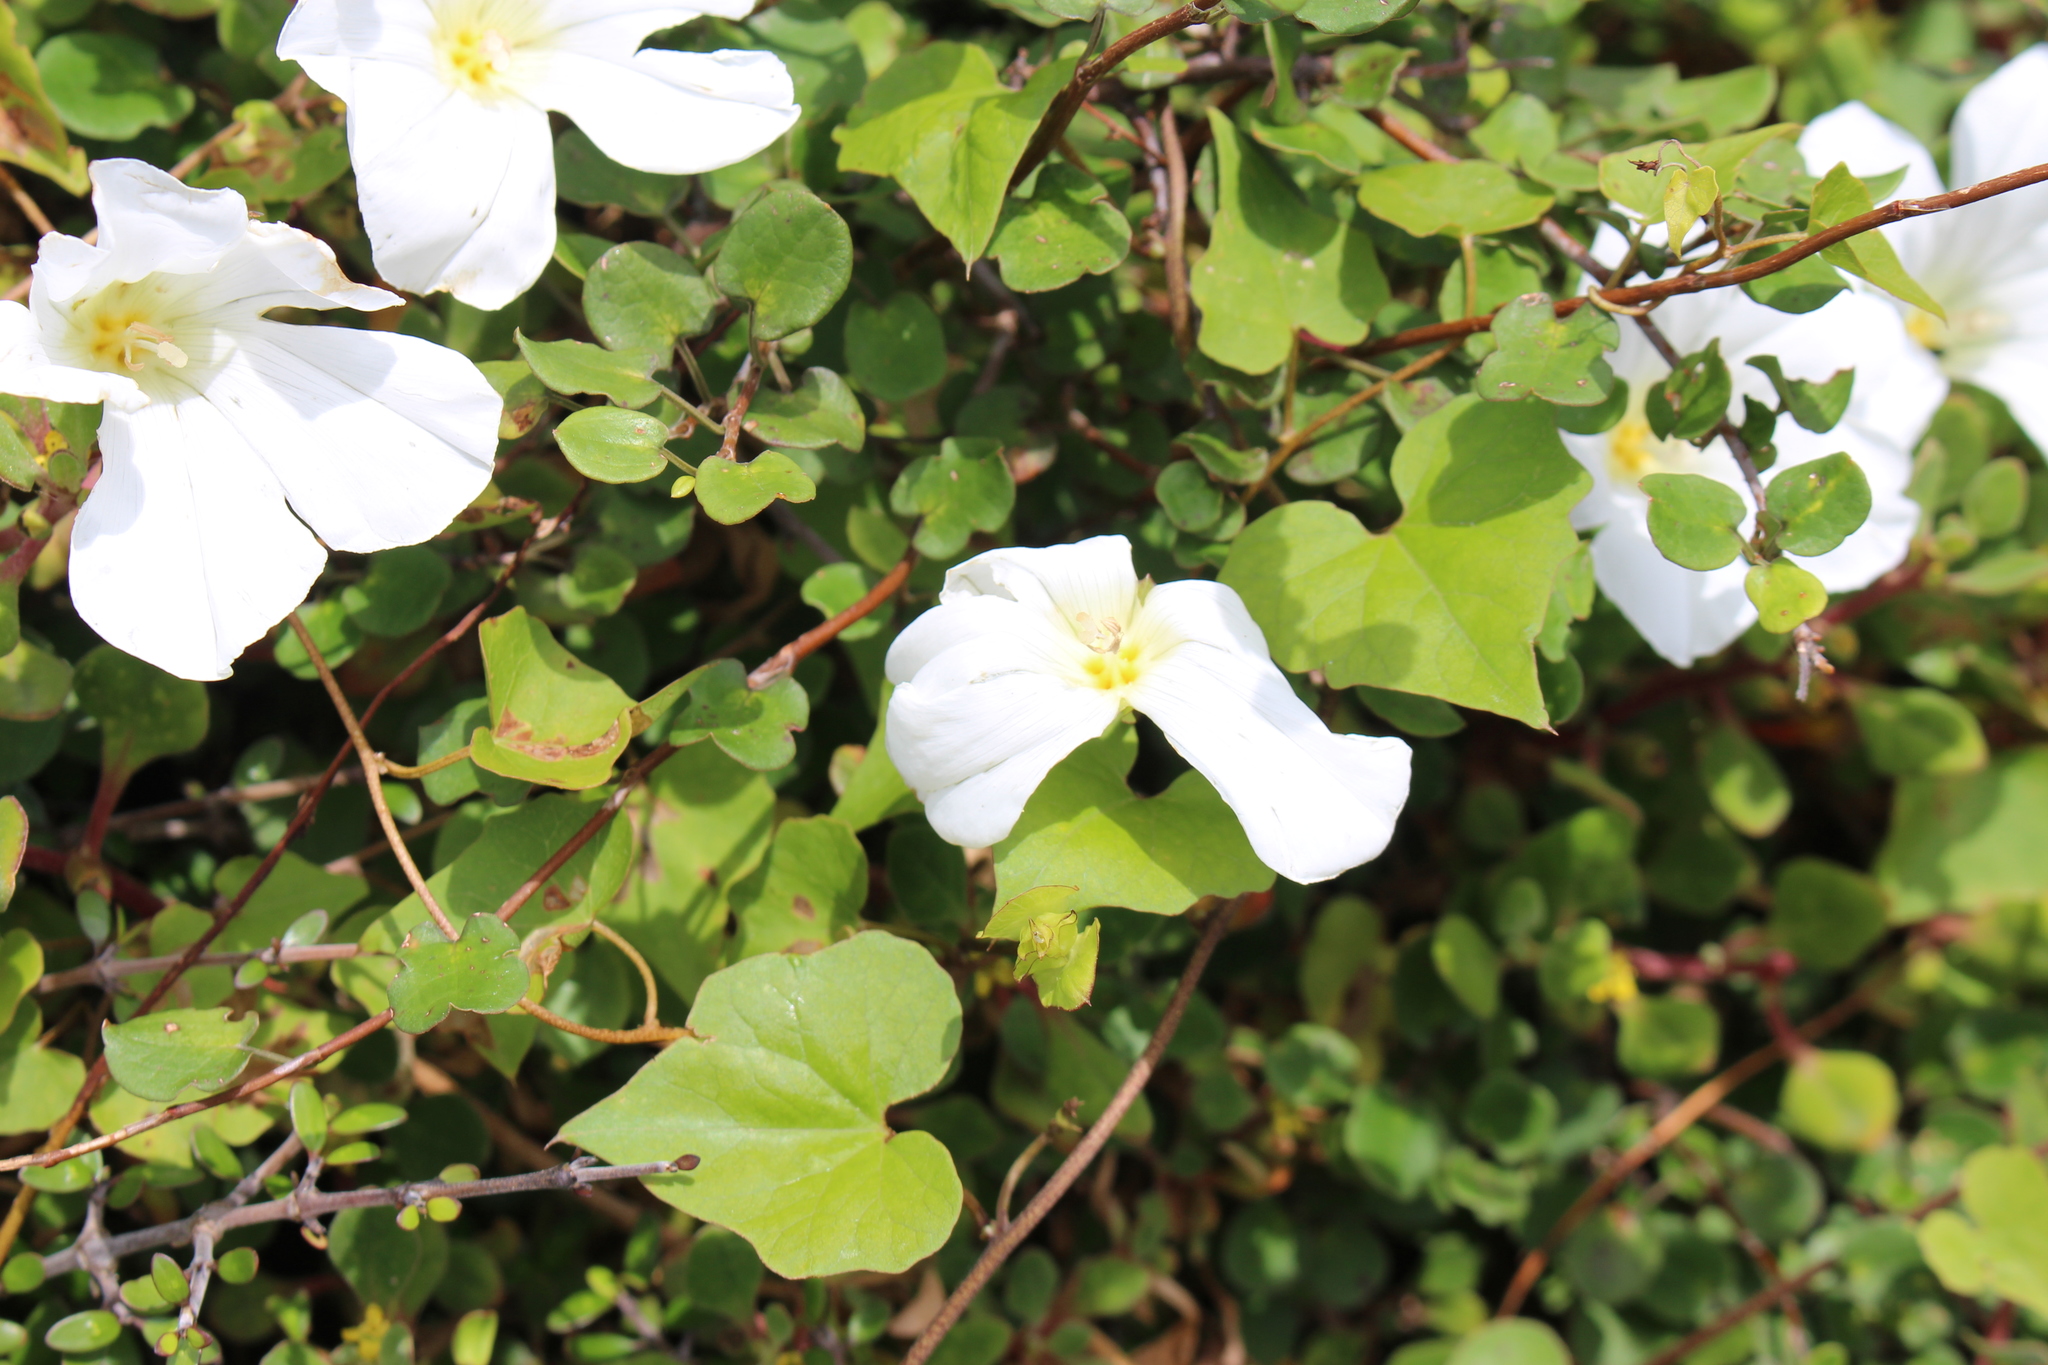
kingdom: Plantae
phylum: Tracheophyta
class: Magnoliopsida
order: Solanales
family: Convolvulaceae
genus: Calystegia
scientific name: Calystegia tuguriorum
